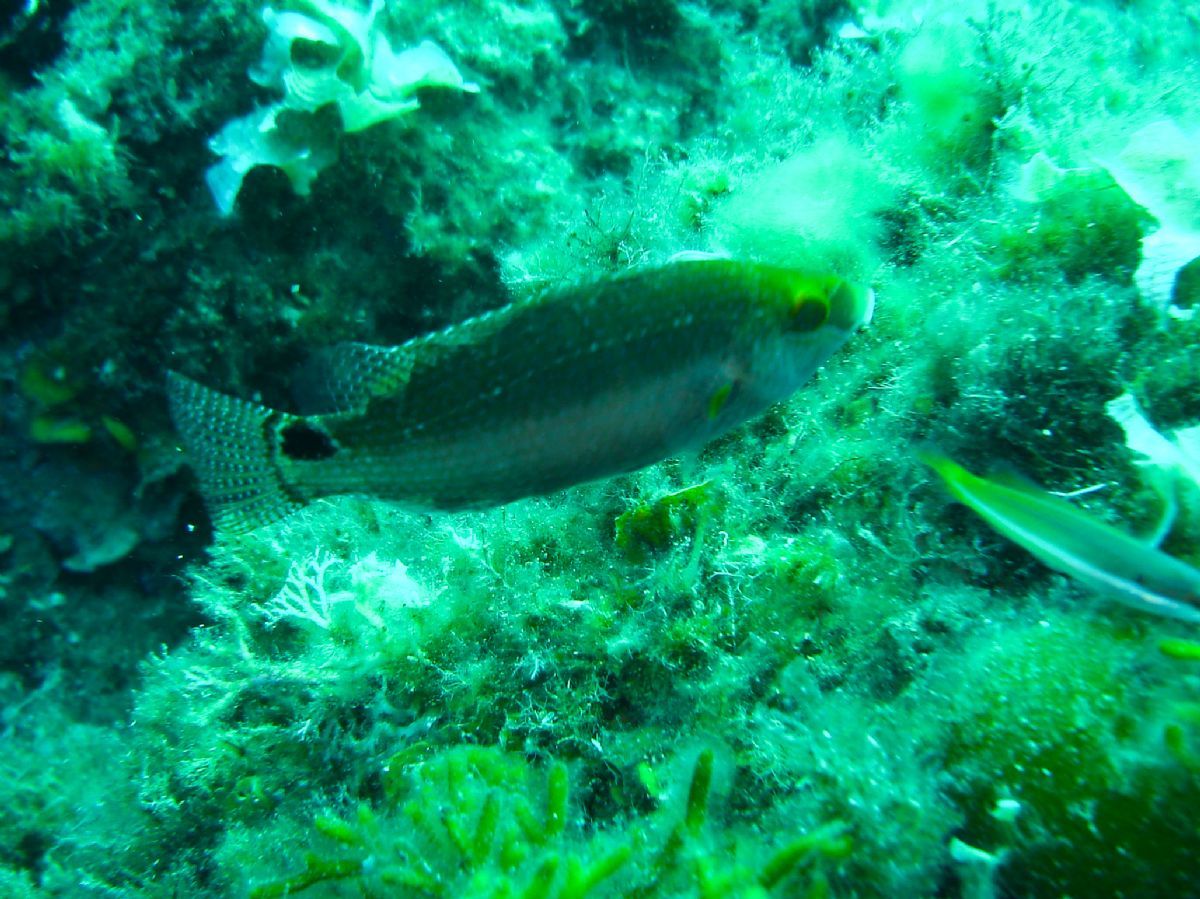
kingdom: Animalia
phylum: Chordata
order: Perciformes
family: Labridae
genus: Symphodus
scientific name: Symphodus mediterraneus
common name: Axillary wrasse
